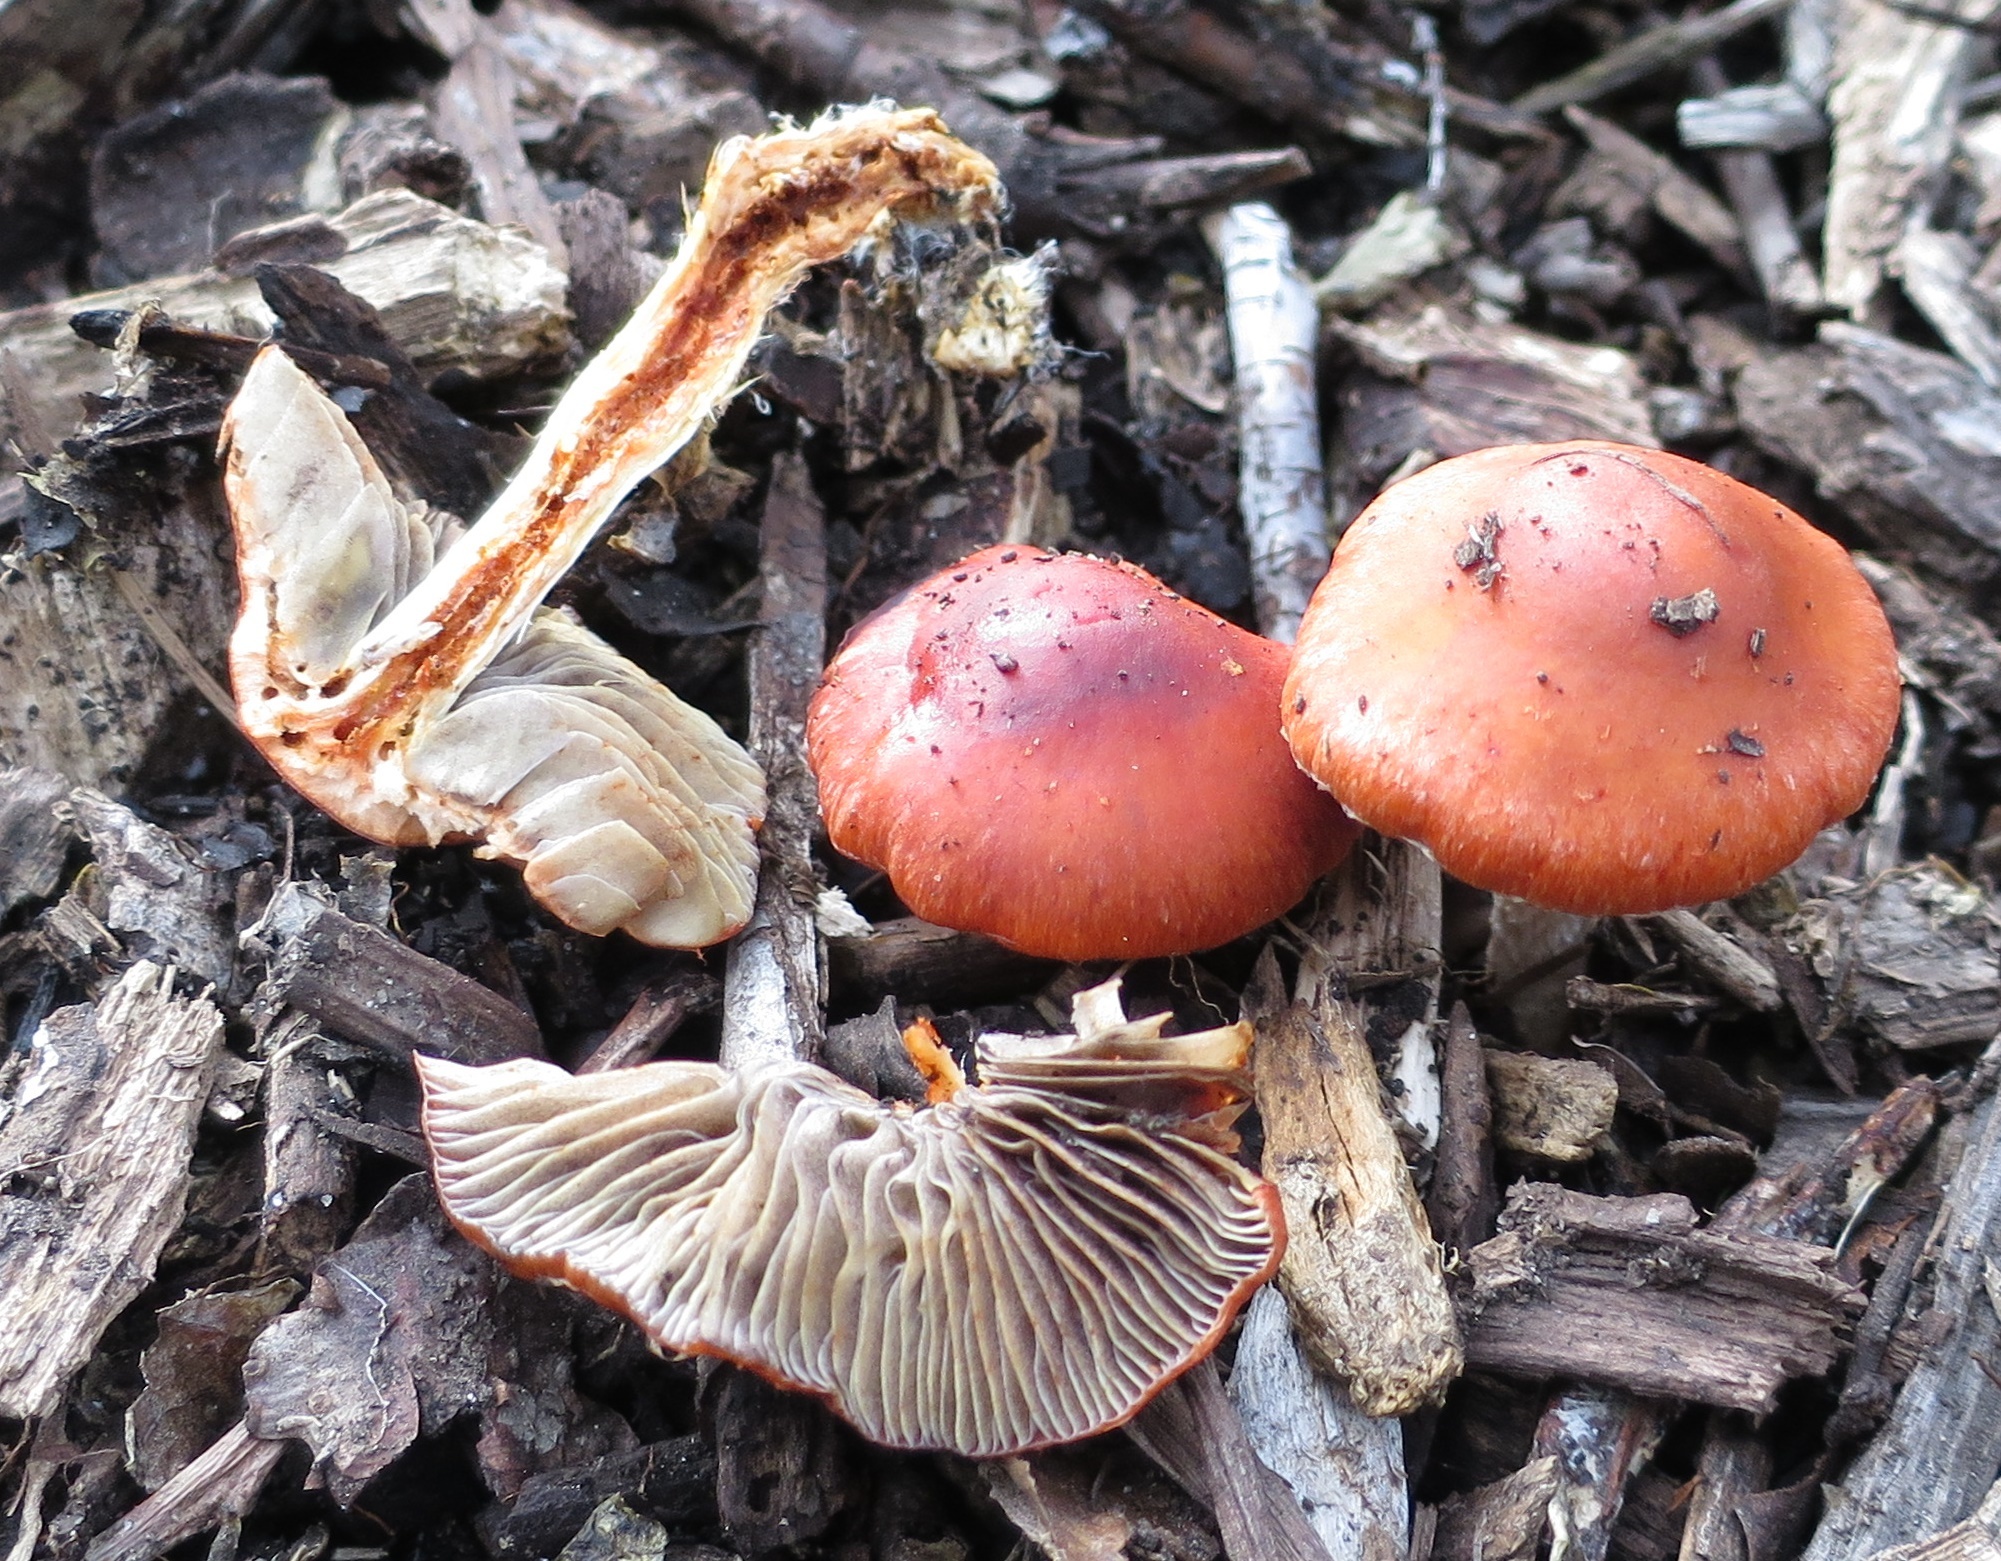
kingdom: Fungi
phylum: Basidiomycota
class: Agaricomycetes
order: Agaricales
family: Strophariaceae
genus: Leratiomyces
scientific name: Leratiomyces ceres
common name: Redlead roundhead
